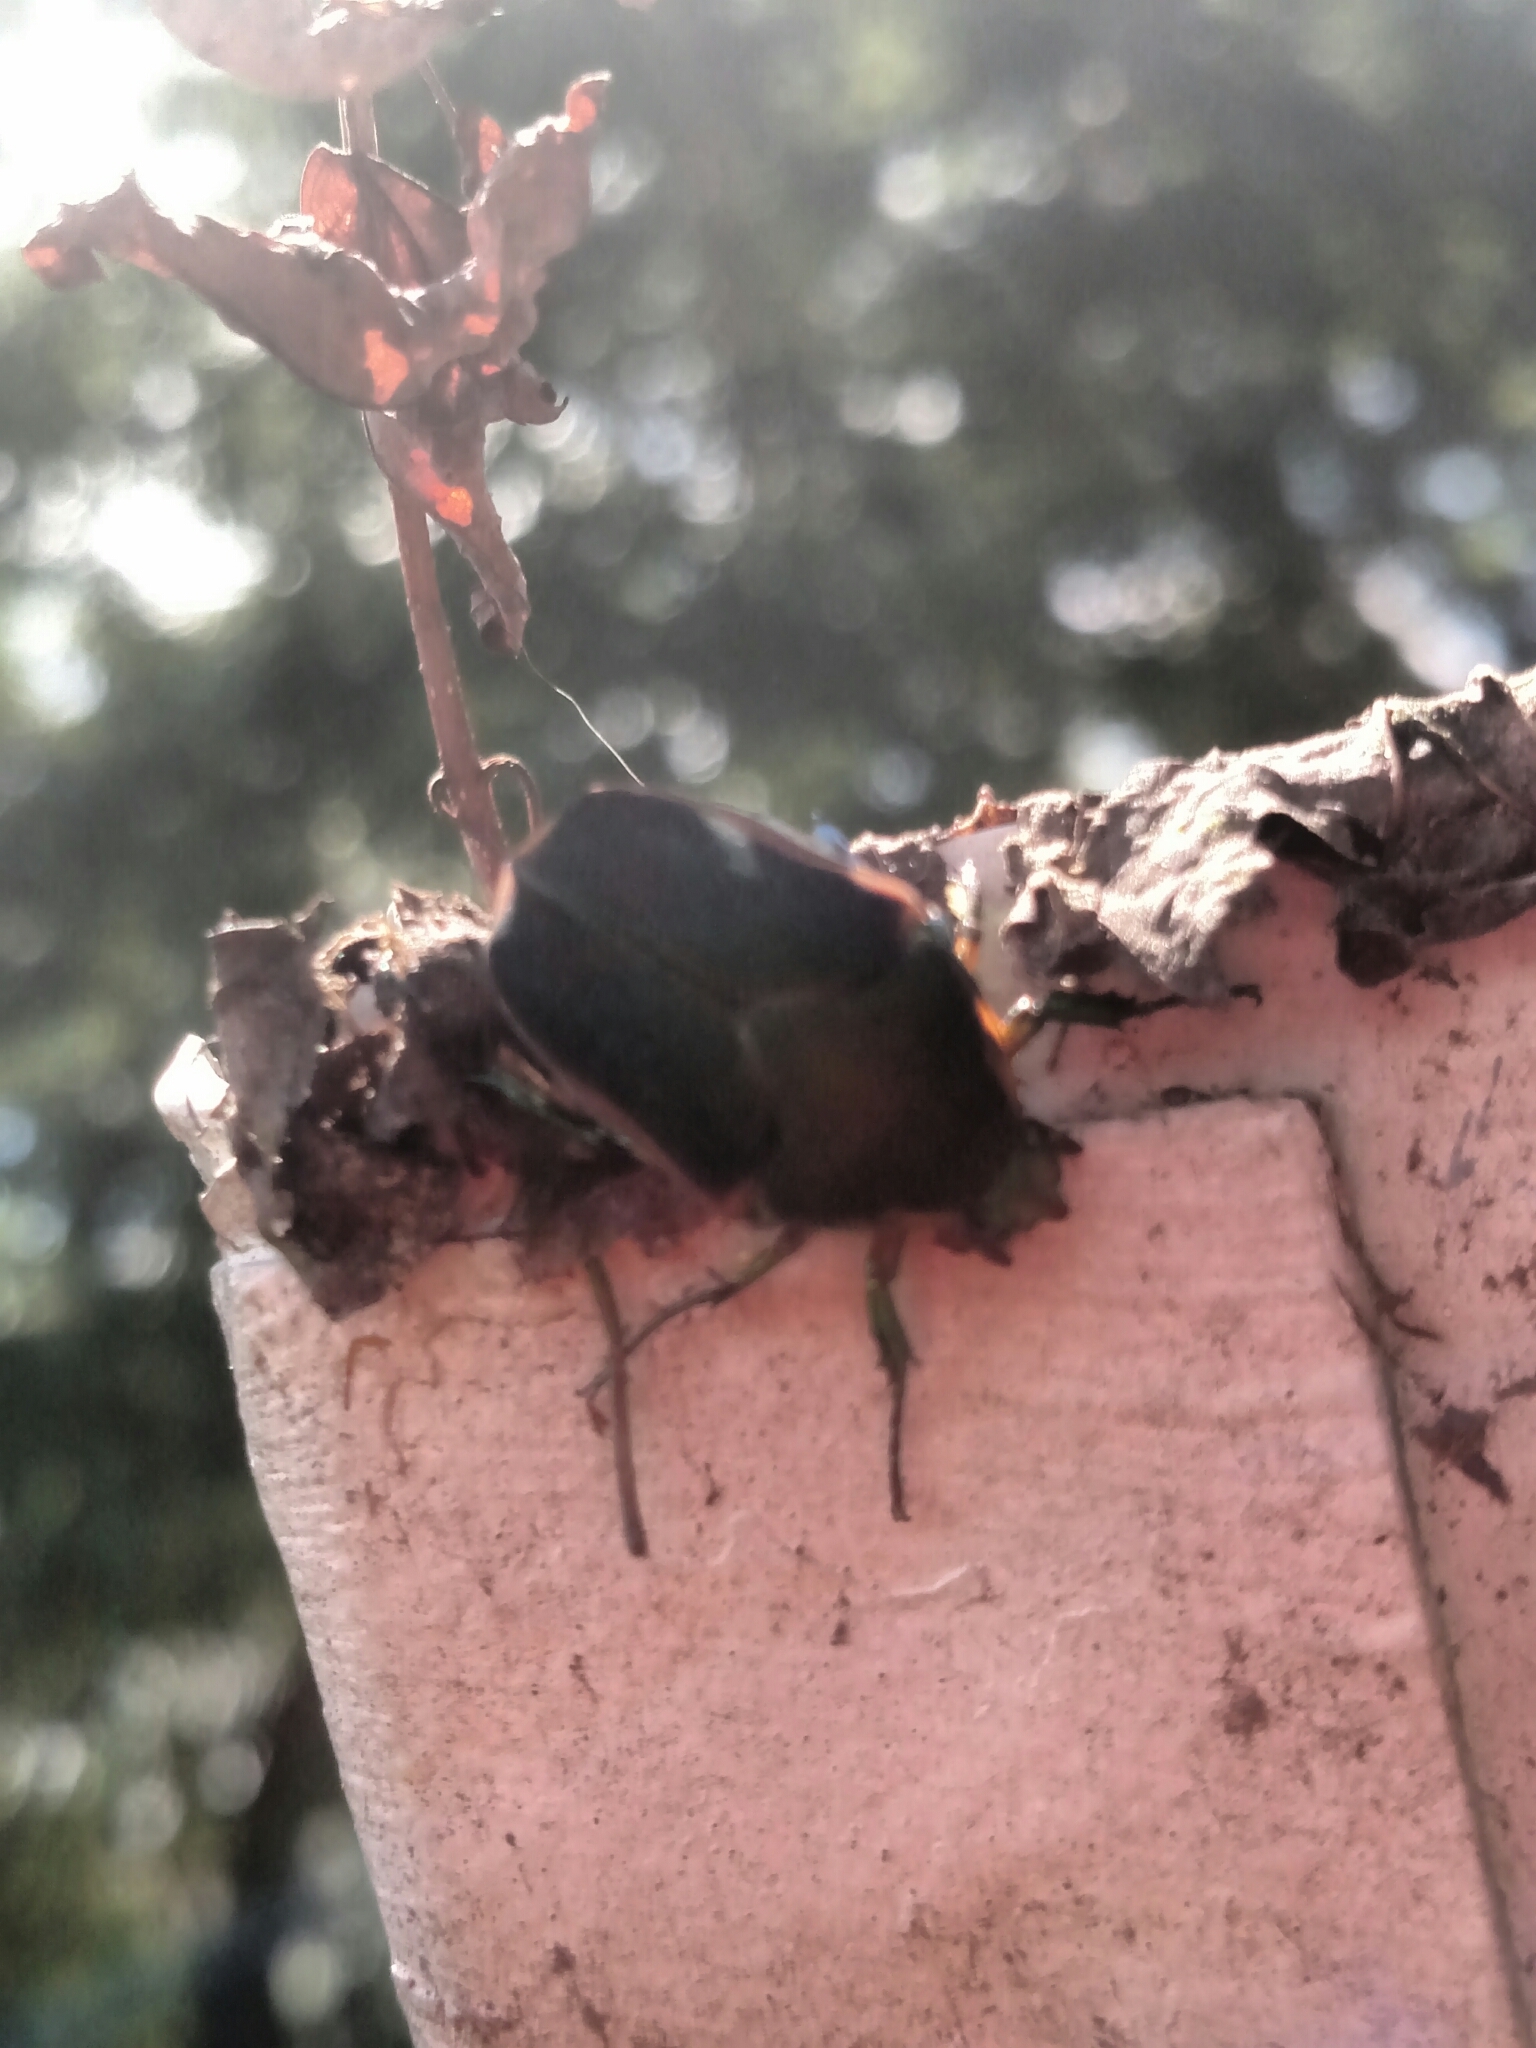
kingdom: Animalia
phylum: Arthropoda
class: Insecta
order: Coleoptera
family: Scarabaeidae
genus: Cotinis
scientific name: Cotinis nitida
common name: Common green june beetle
